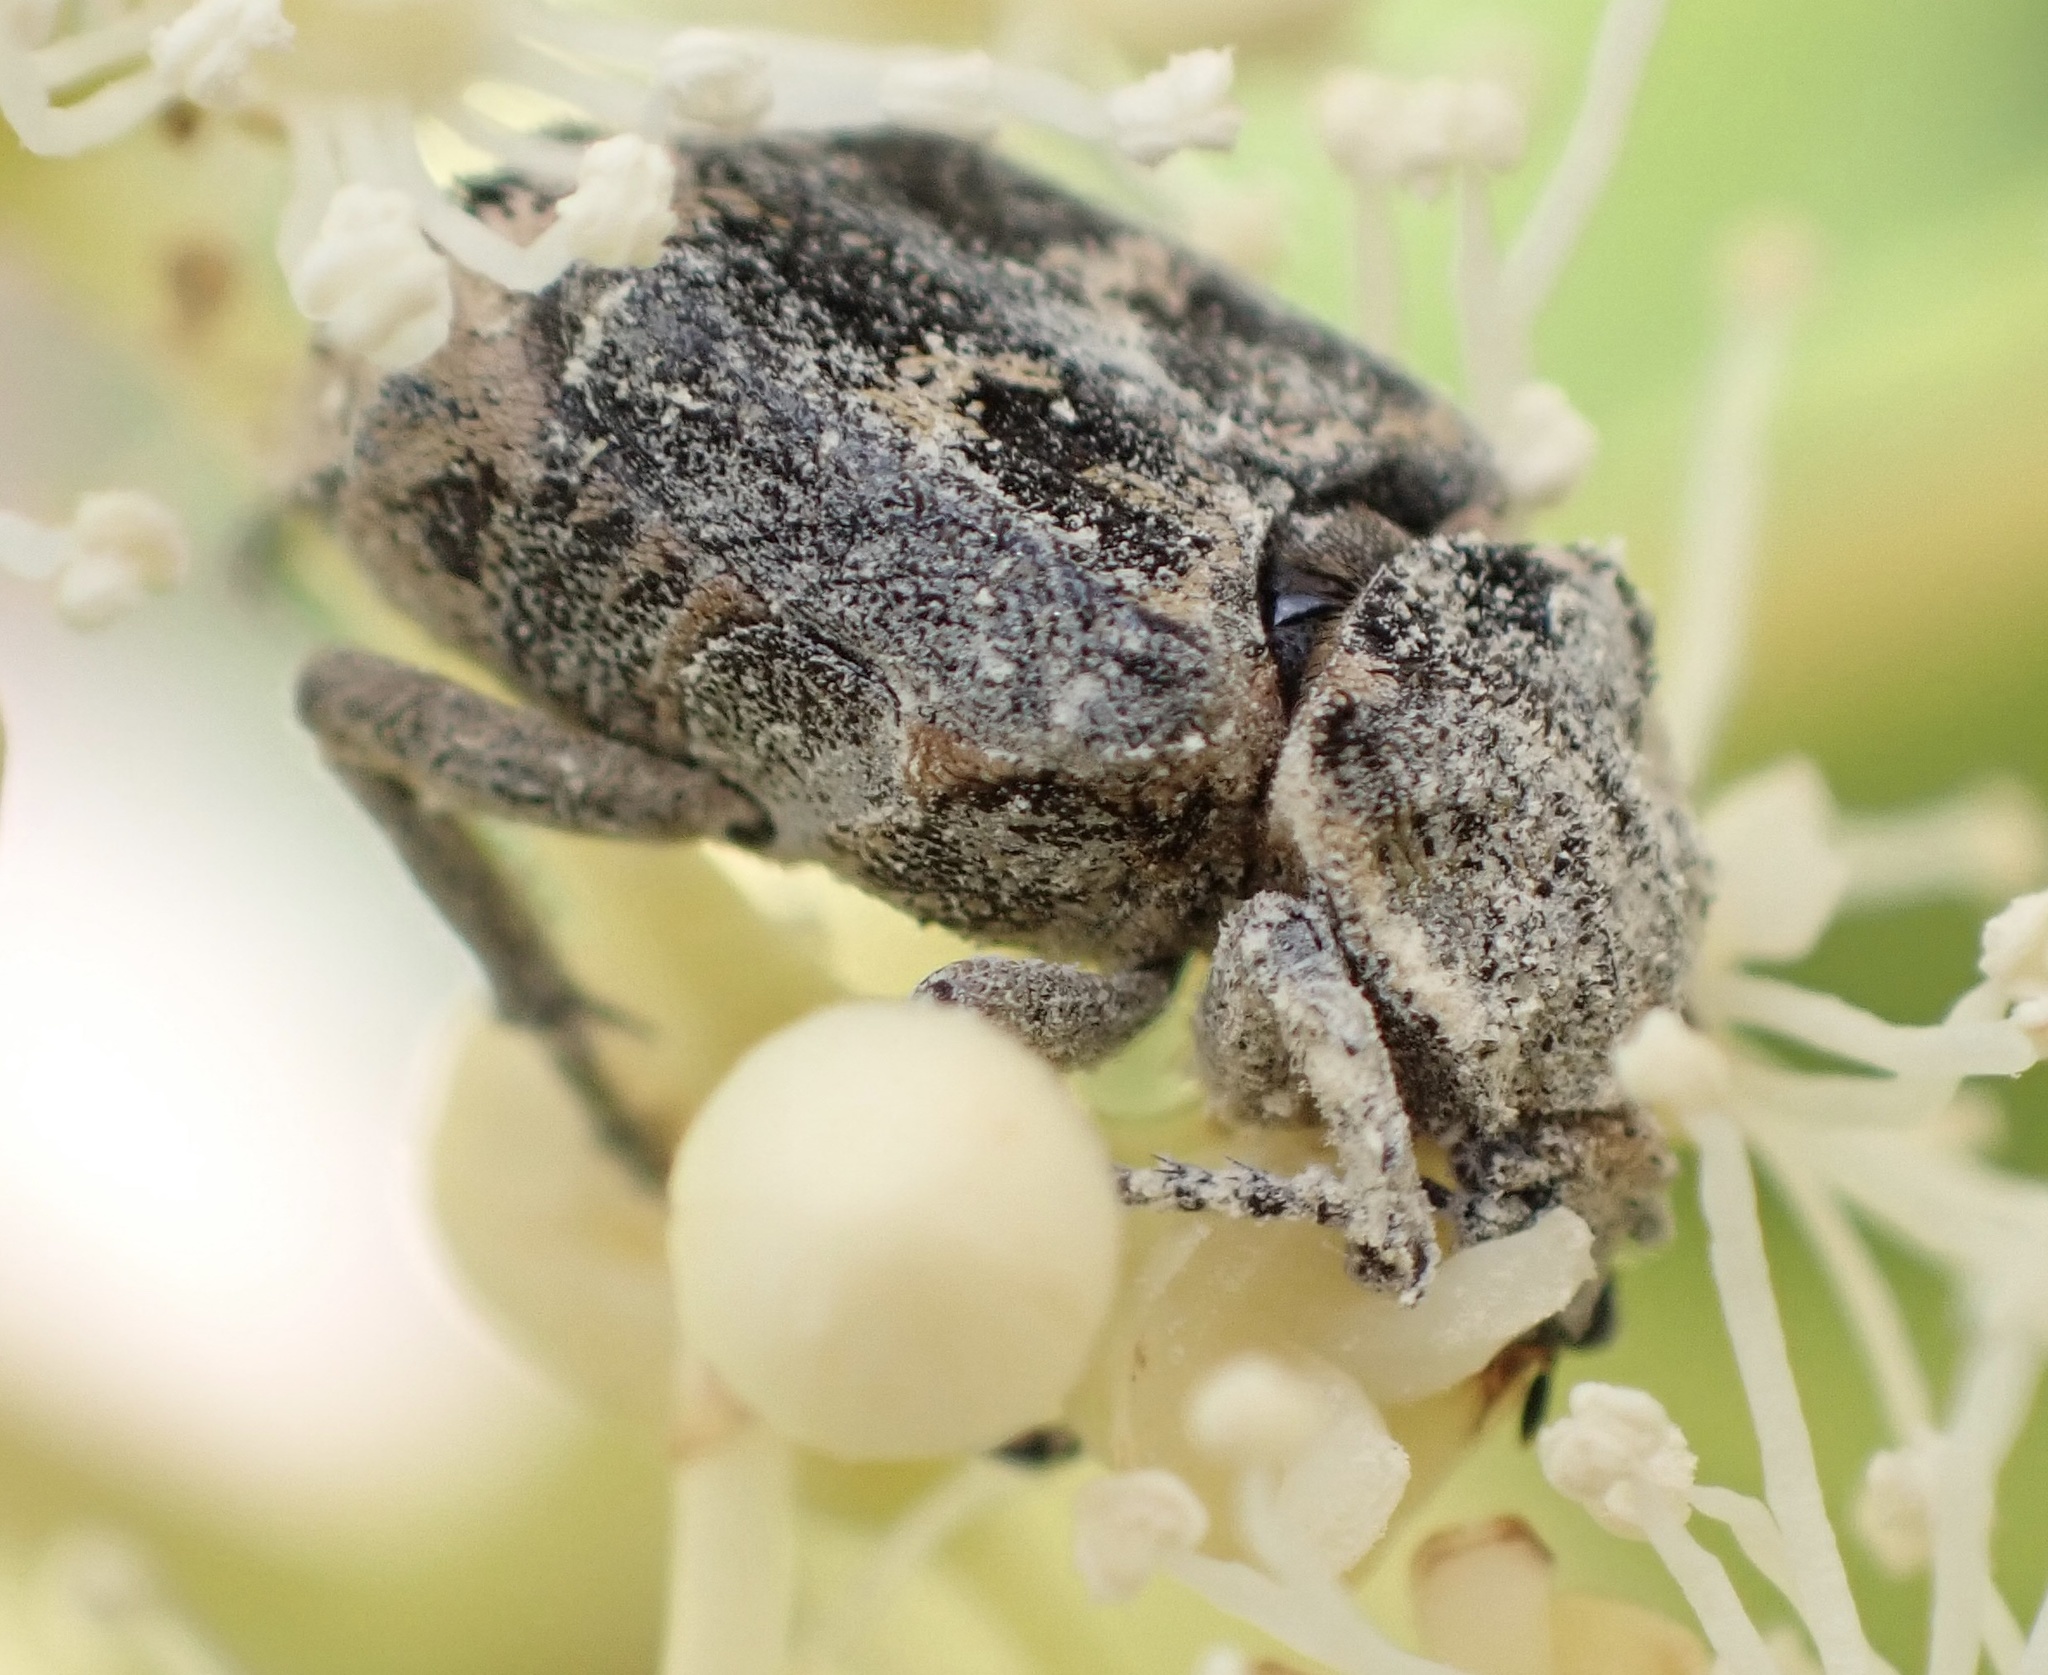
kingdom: Animalia
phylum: Arthropoda
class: Insecta
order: Coleoptera
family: Scarabaeidae
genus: Valgus
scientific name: Valgus hemipterus
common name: Bug flower chafer
